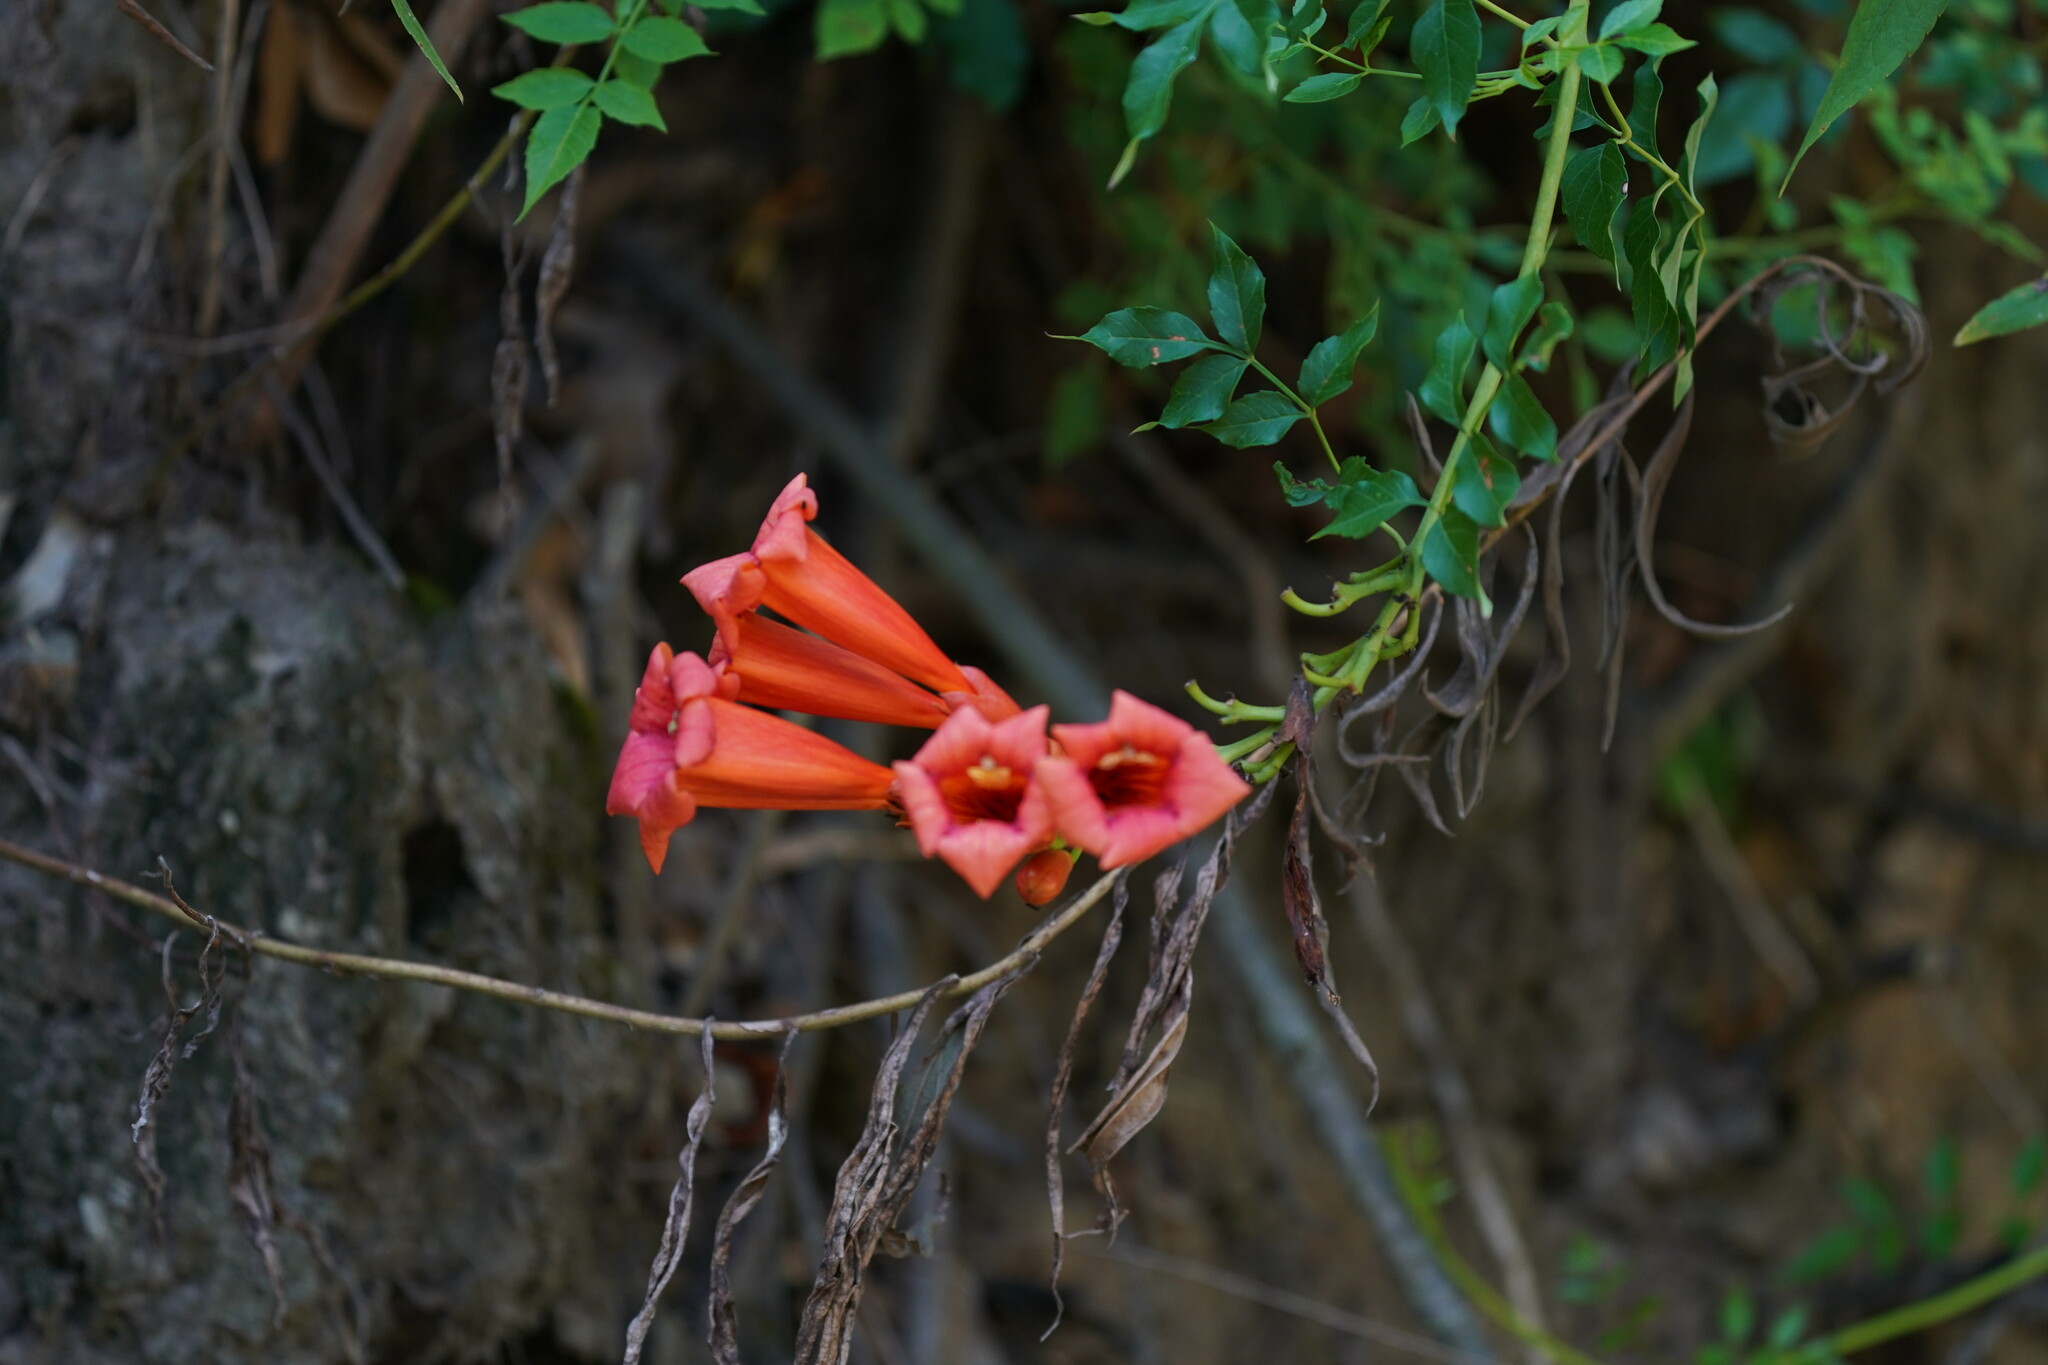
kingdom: Plantae
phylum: Tracheophyta
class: Magnoliopsida
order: Lamiales
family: Bignoniaceae
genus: Campsis
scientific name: Campsis radicans
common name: Trumpet-creeper
